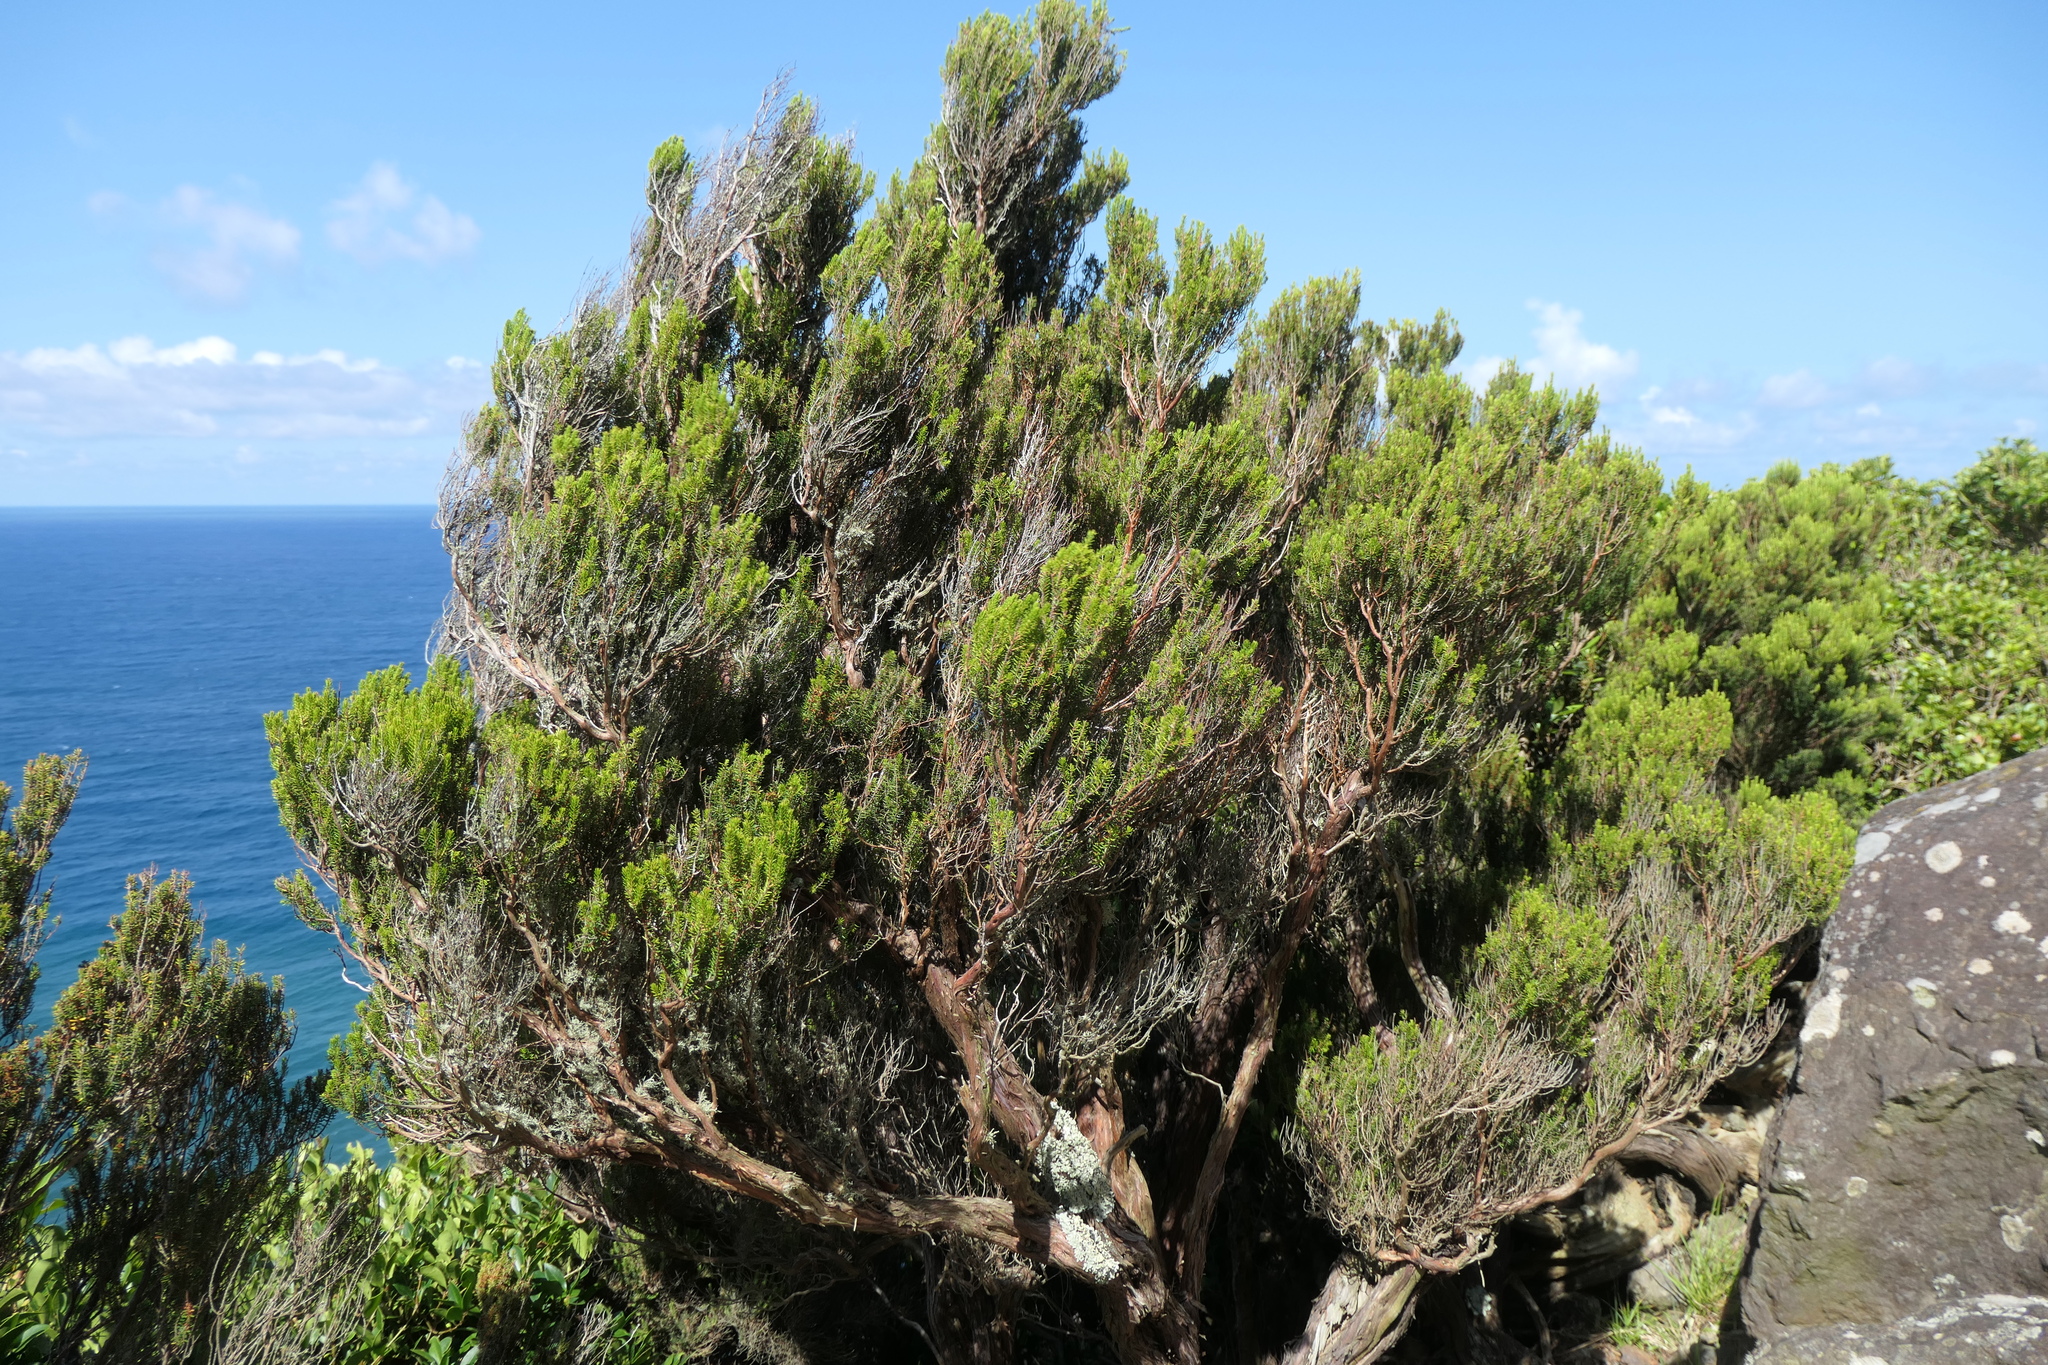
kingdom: Plantae
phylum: Tracheophyta
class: Magnoliopsida
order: Ericales
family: Ericaceae
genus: Erica
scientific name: Erica azorica
